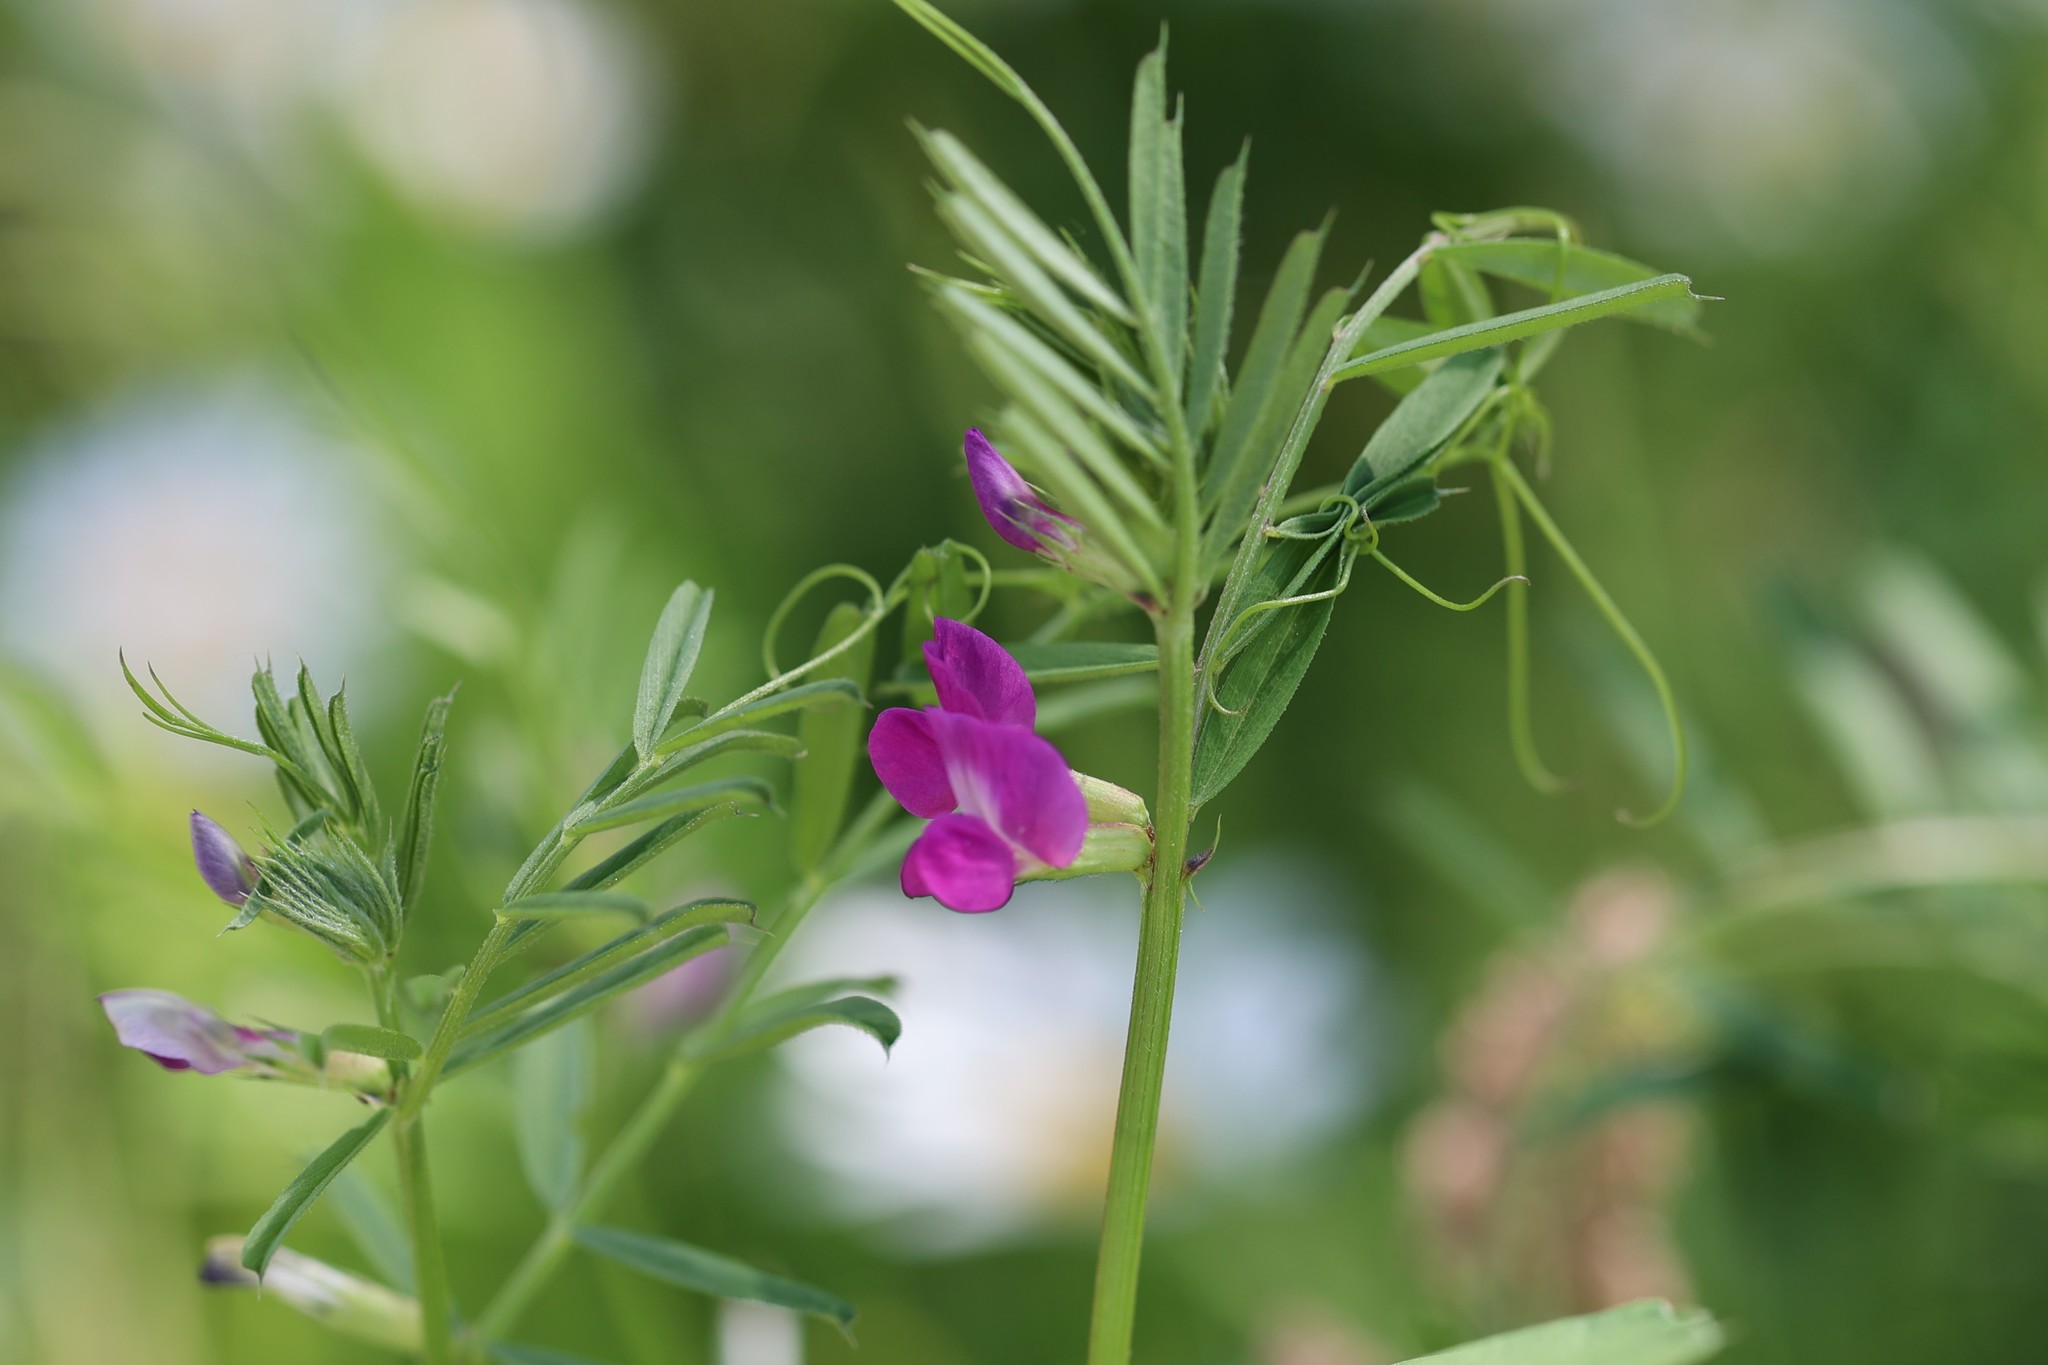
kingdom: Plantae
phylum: Tracheophyta
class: Magnoliopsida
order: Fabales
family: Fabaceae
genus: Vicia
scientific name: Vicia sativa
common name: Garden vetch
